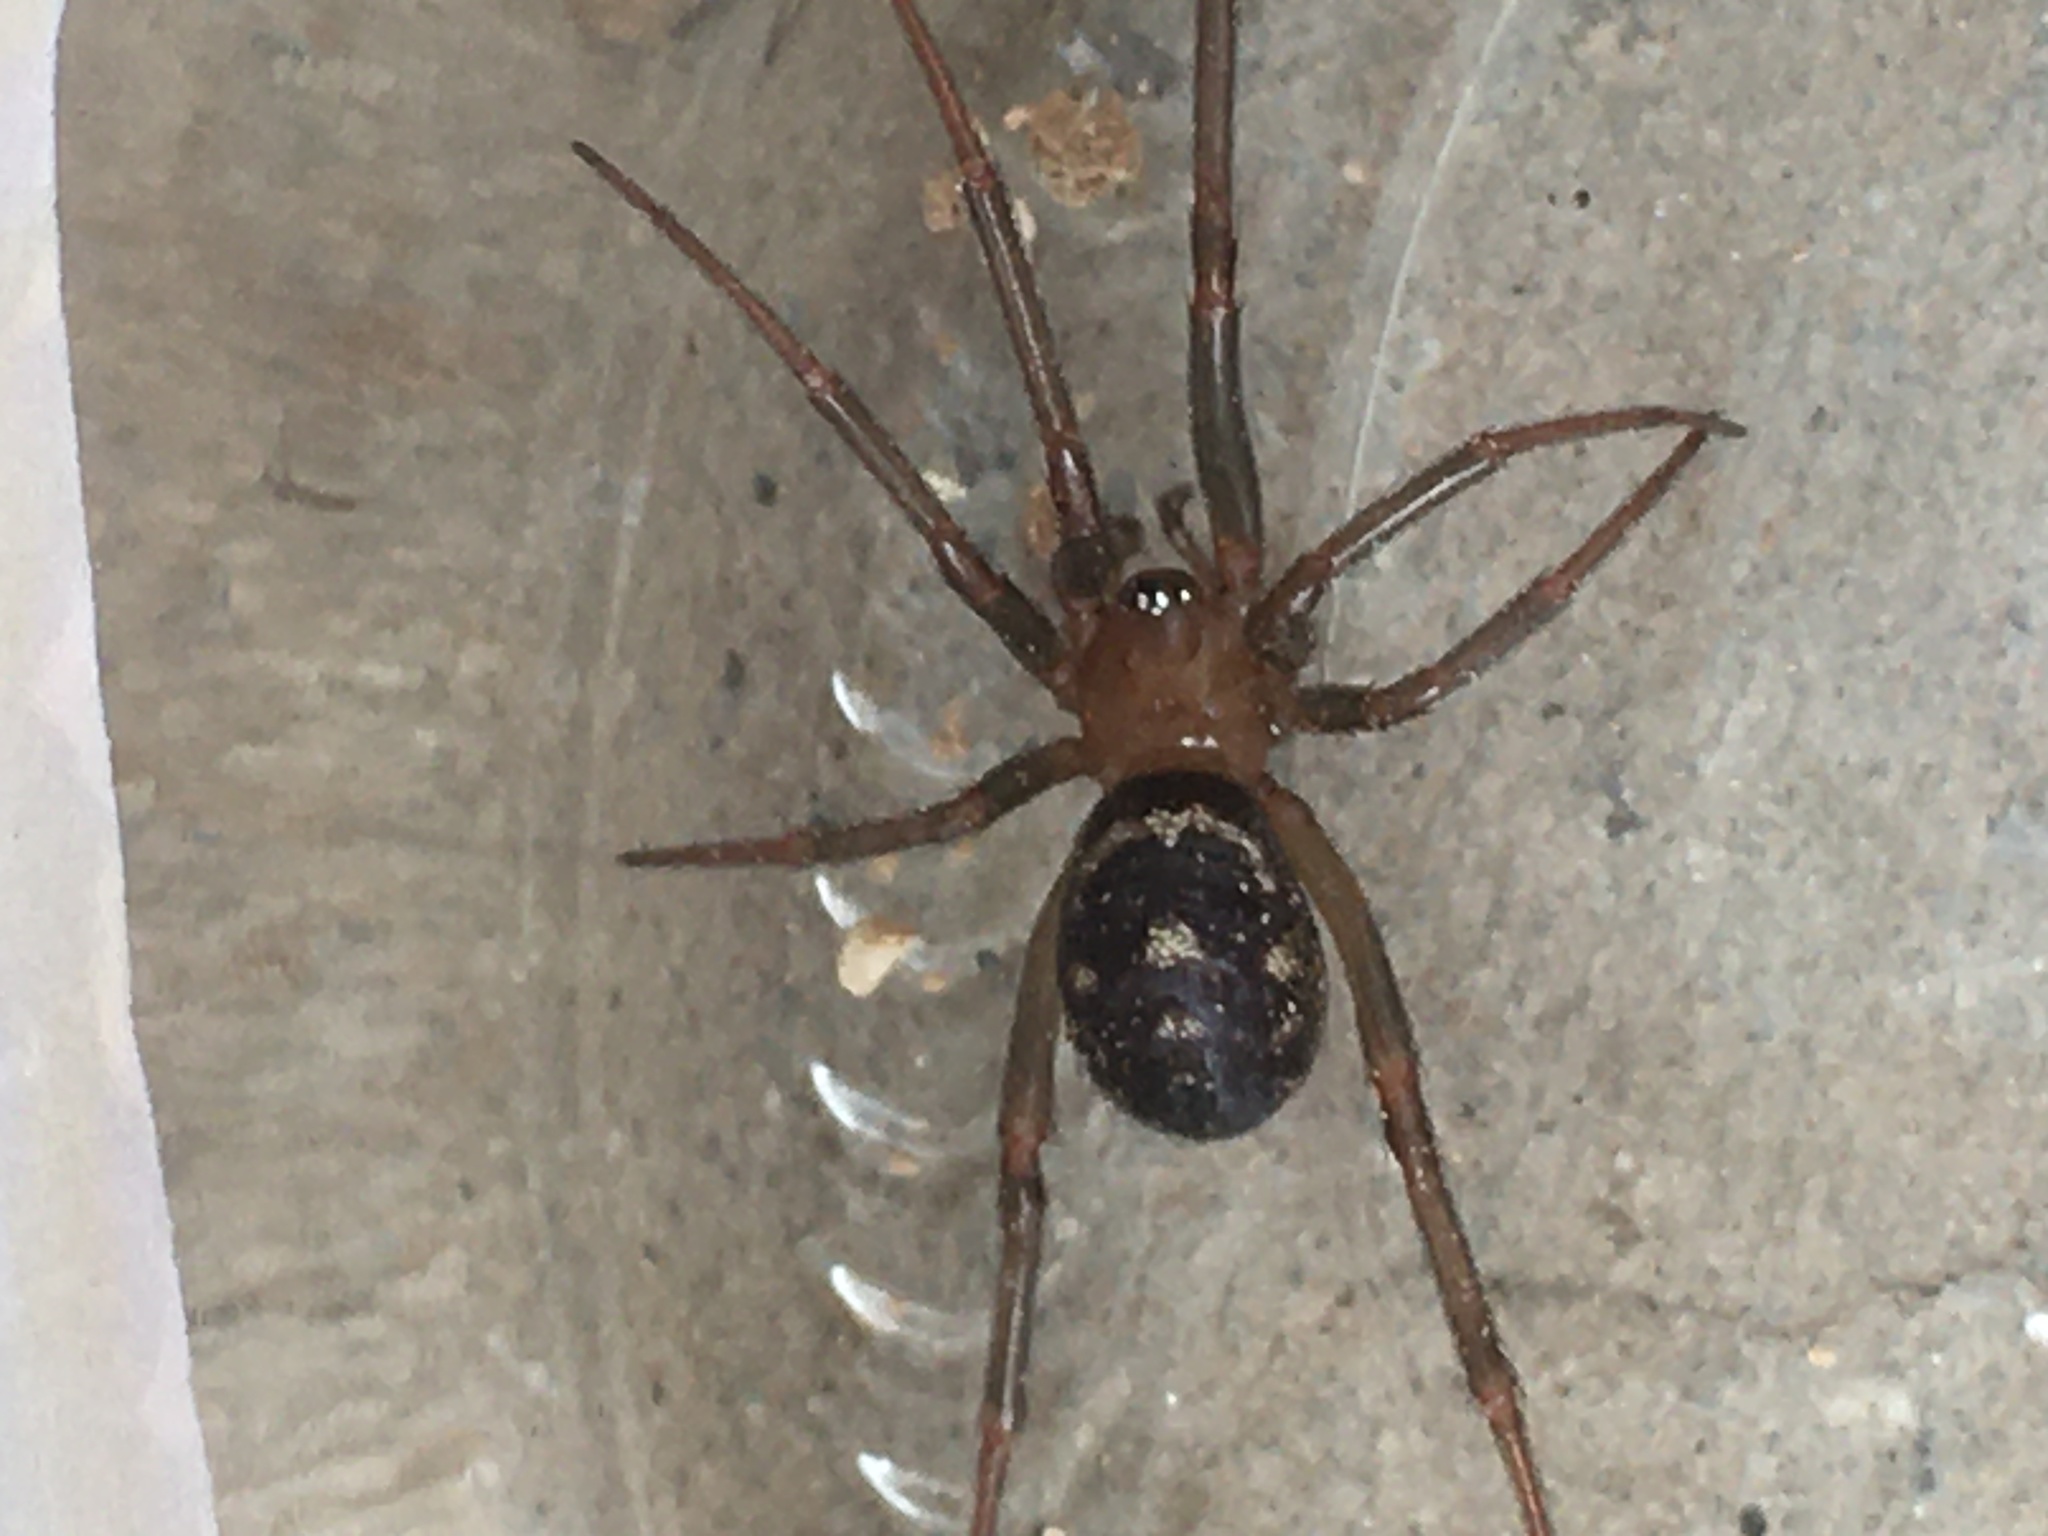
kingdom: Animalia
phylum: Arthropoda
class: Arachnida
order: Araneae
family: Theridiidae
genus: Steatoda
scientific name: Steatoda grossa
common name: False black widow
